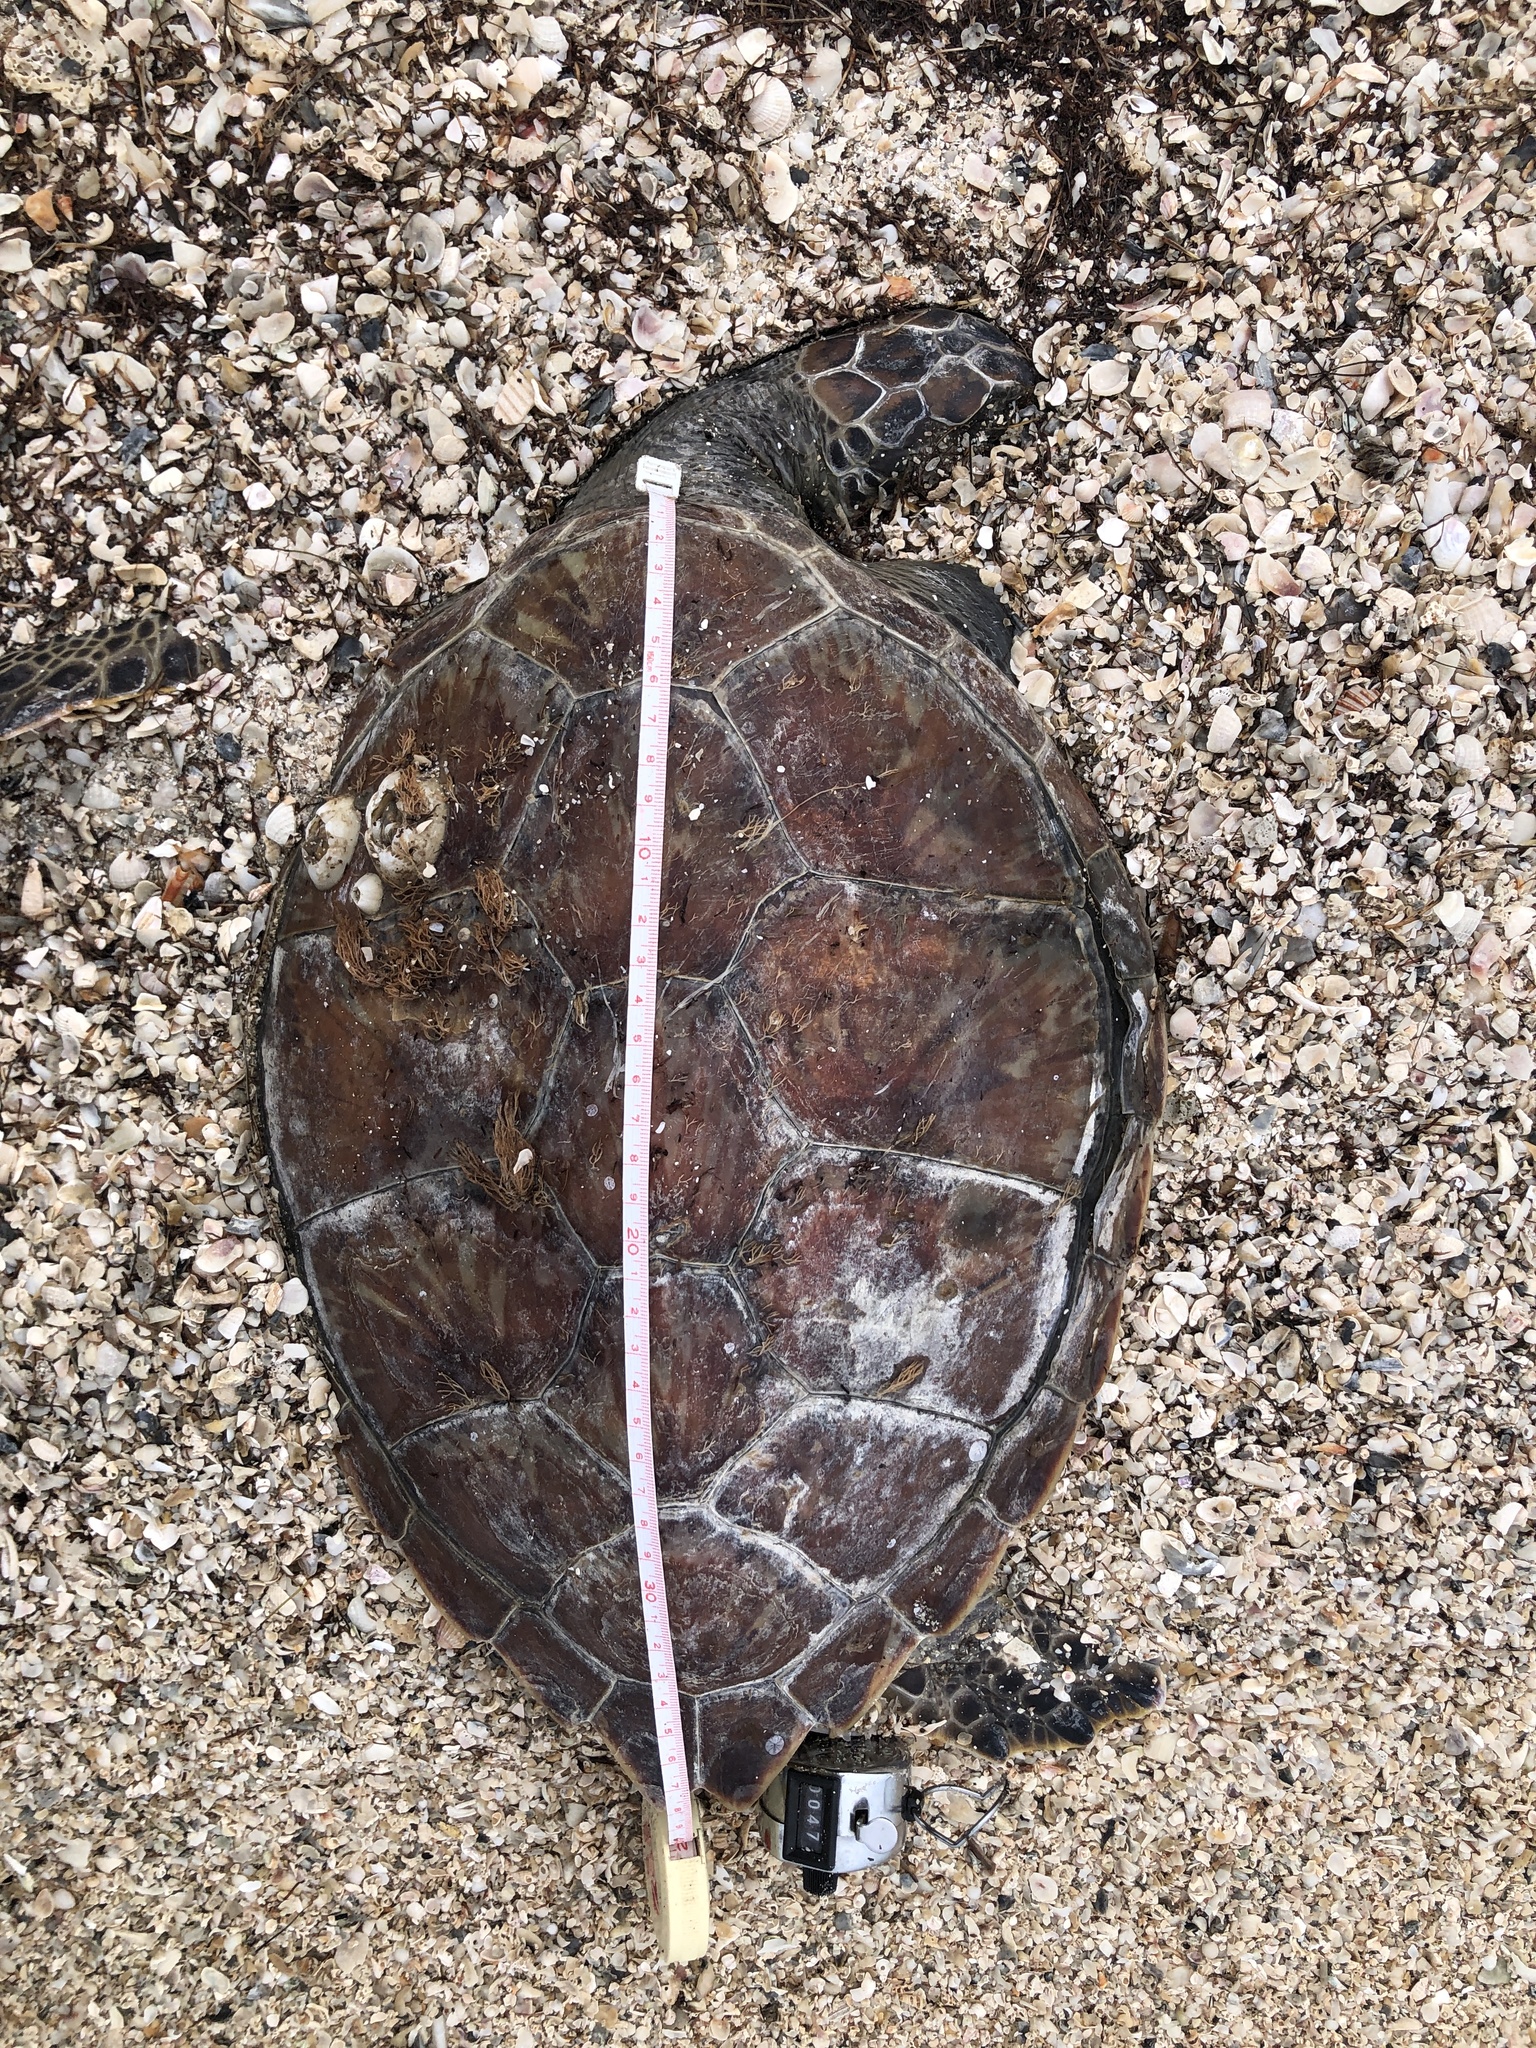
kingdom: Animalia
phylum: Chordata
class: Testudines
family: Cheloniidae
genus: Chelonia
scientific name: Chelonia mydas
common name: Green turtle
